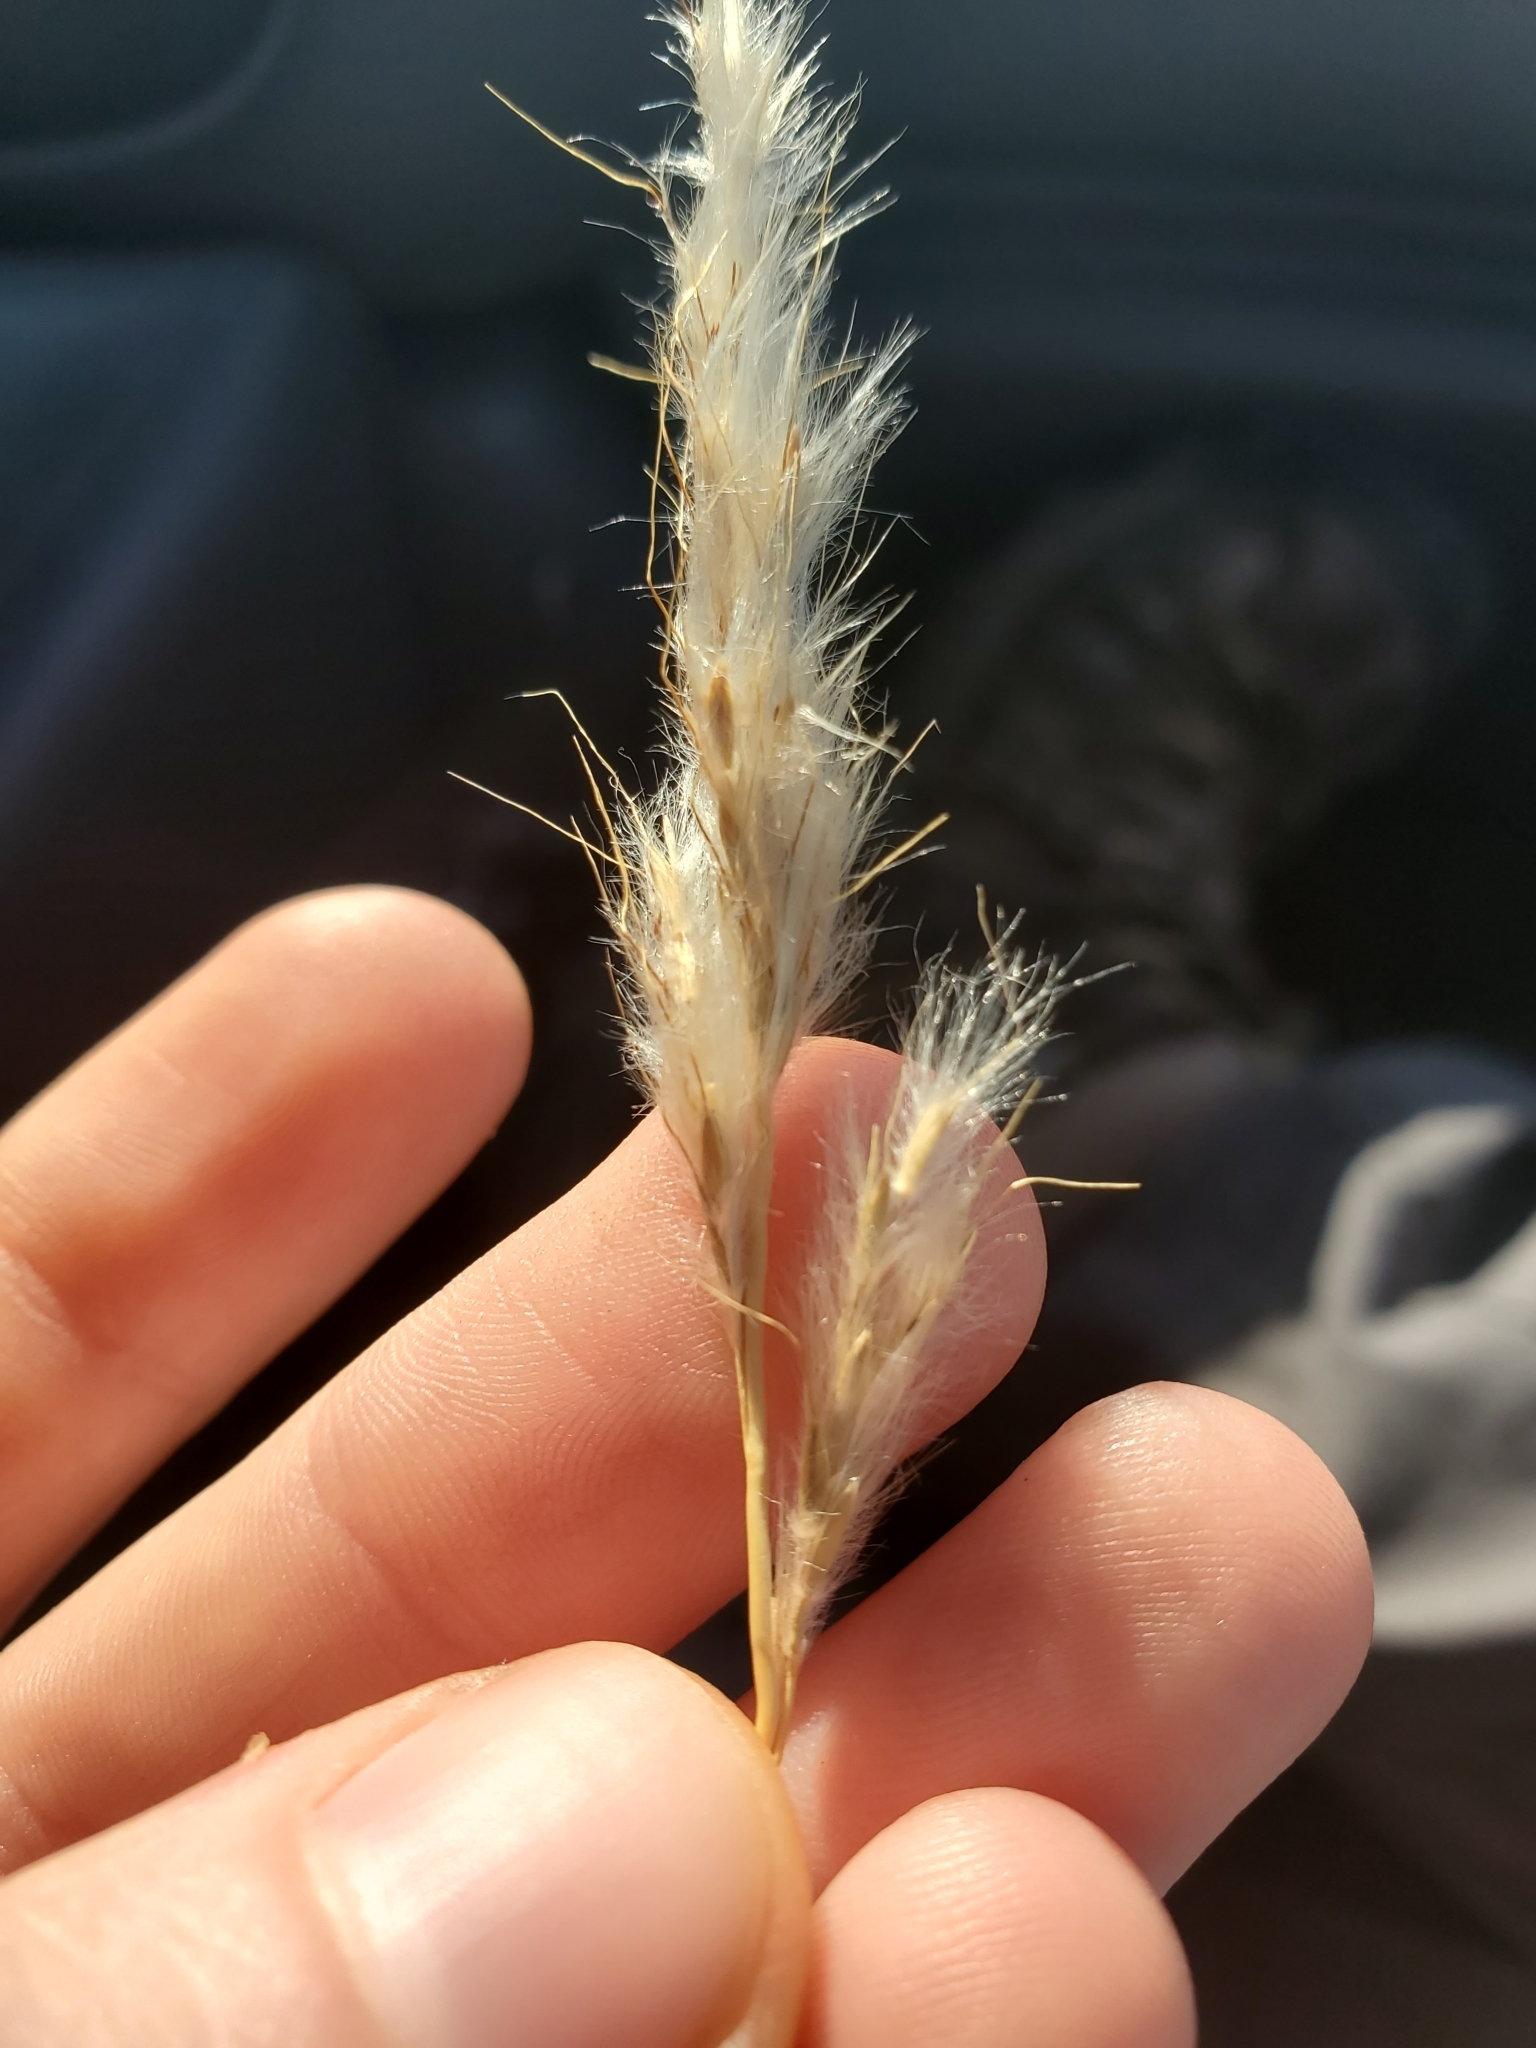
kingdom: Plantae
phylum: Tracheophyta
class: Liliopsida
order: Poales
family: Poaceae
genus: Bothriochloa
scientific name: Bothriochloa torreyana
